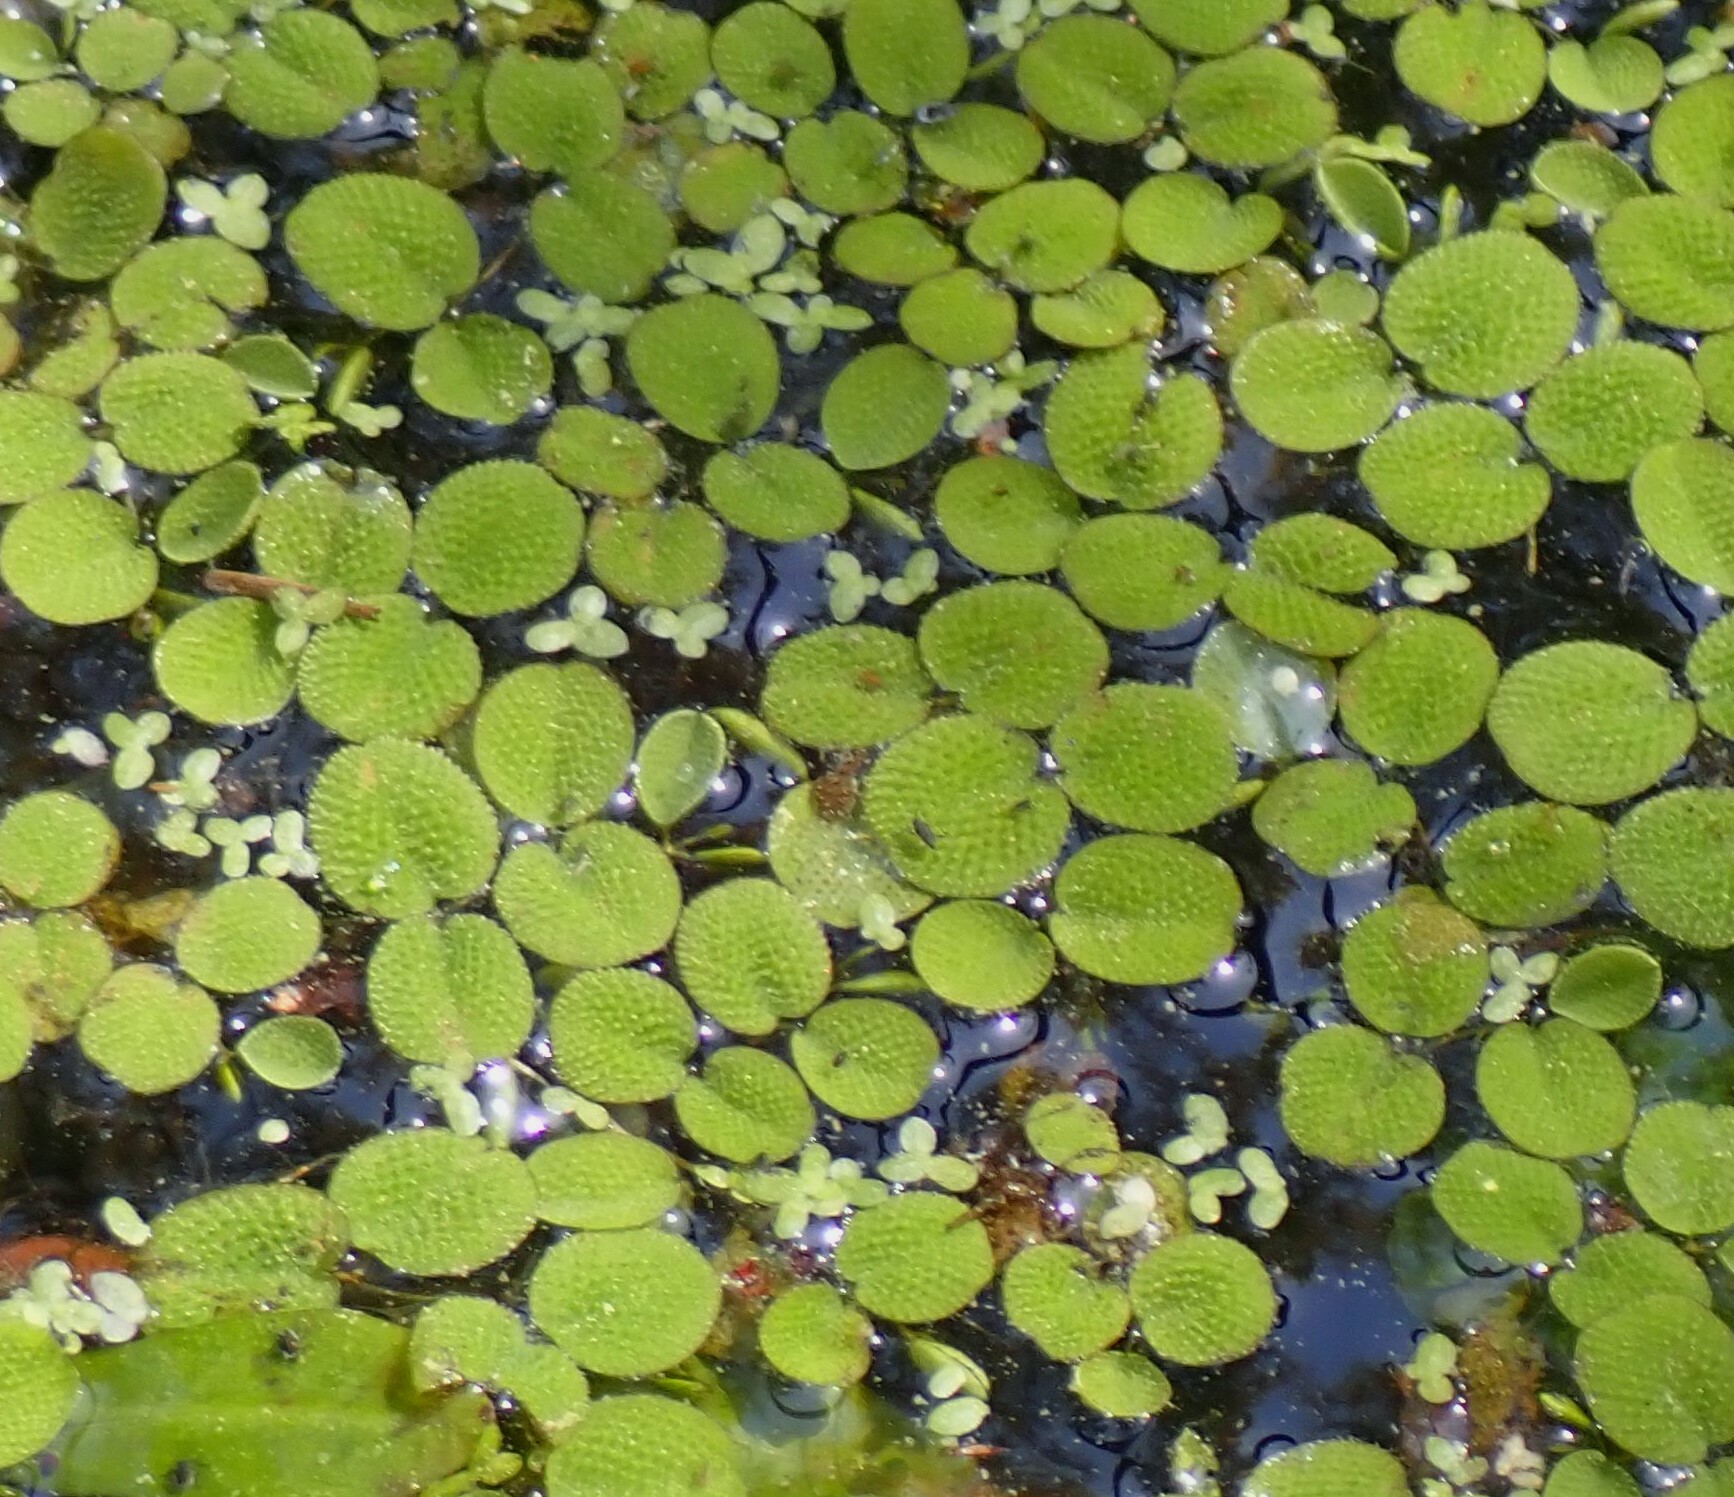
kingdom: Plantae
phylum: Tracheophyta
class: Polypodiopsida
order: Salviniales
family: Salviniaceae
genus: Salvinia
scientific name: Salvinia minima
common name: Water spangles
